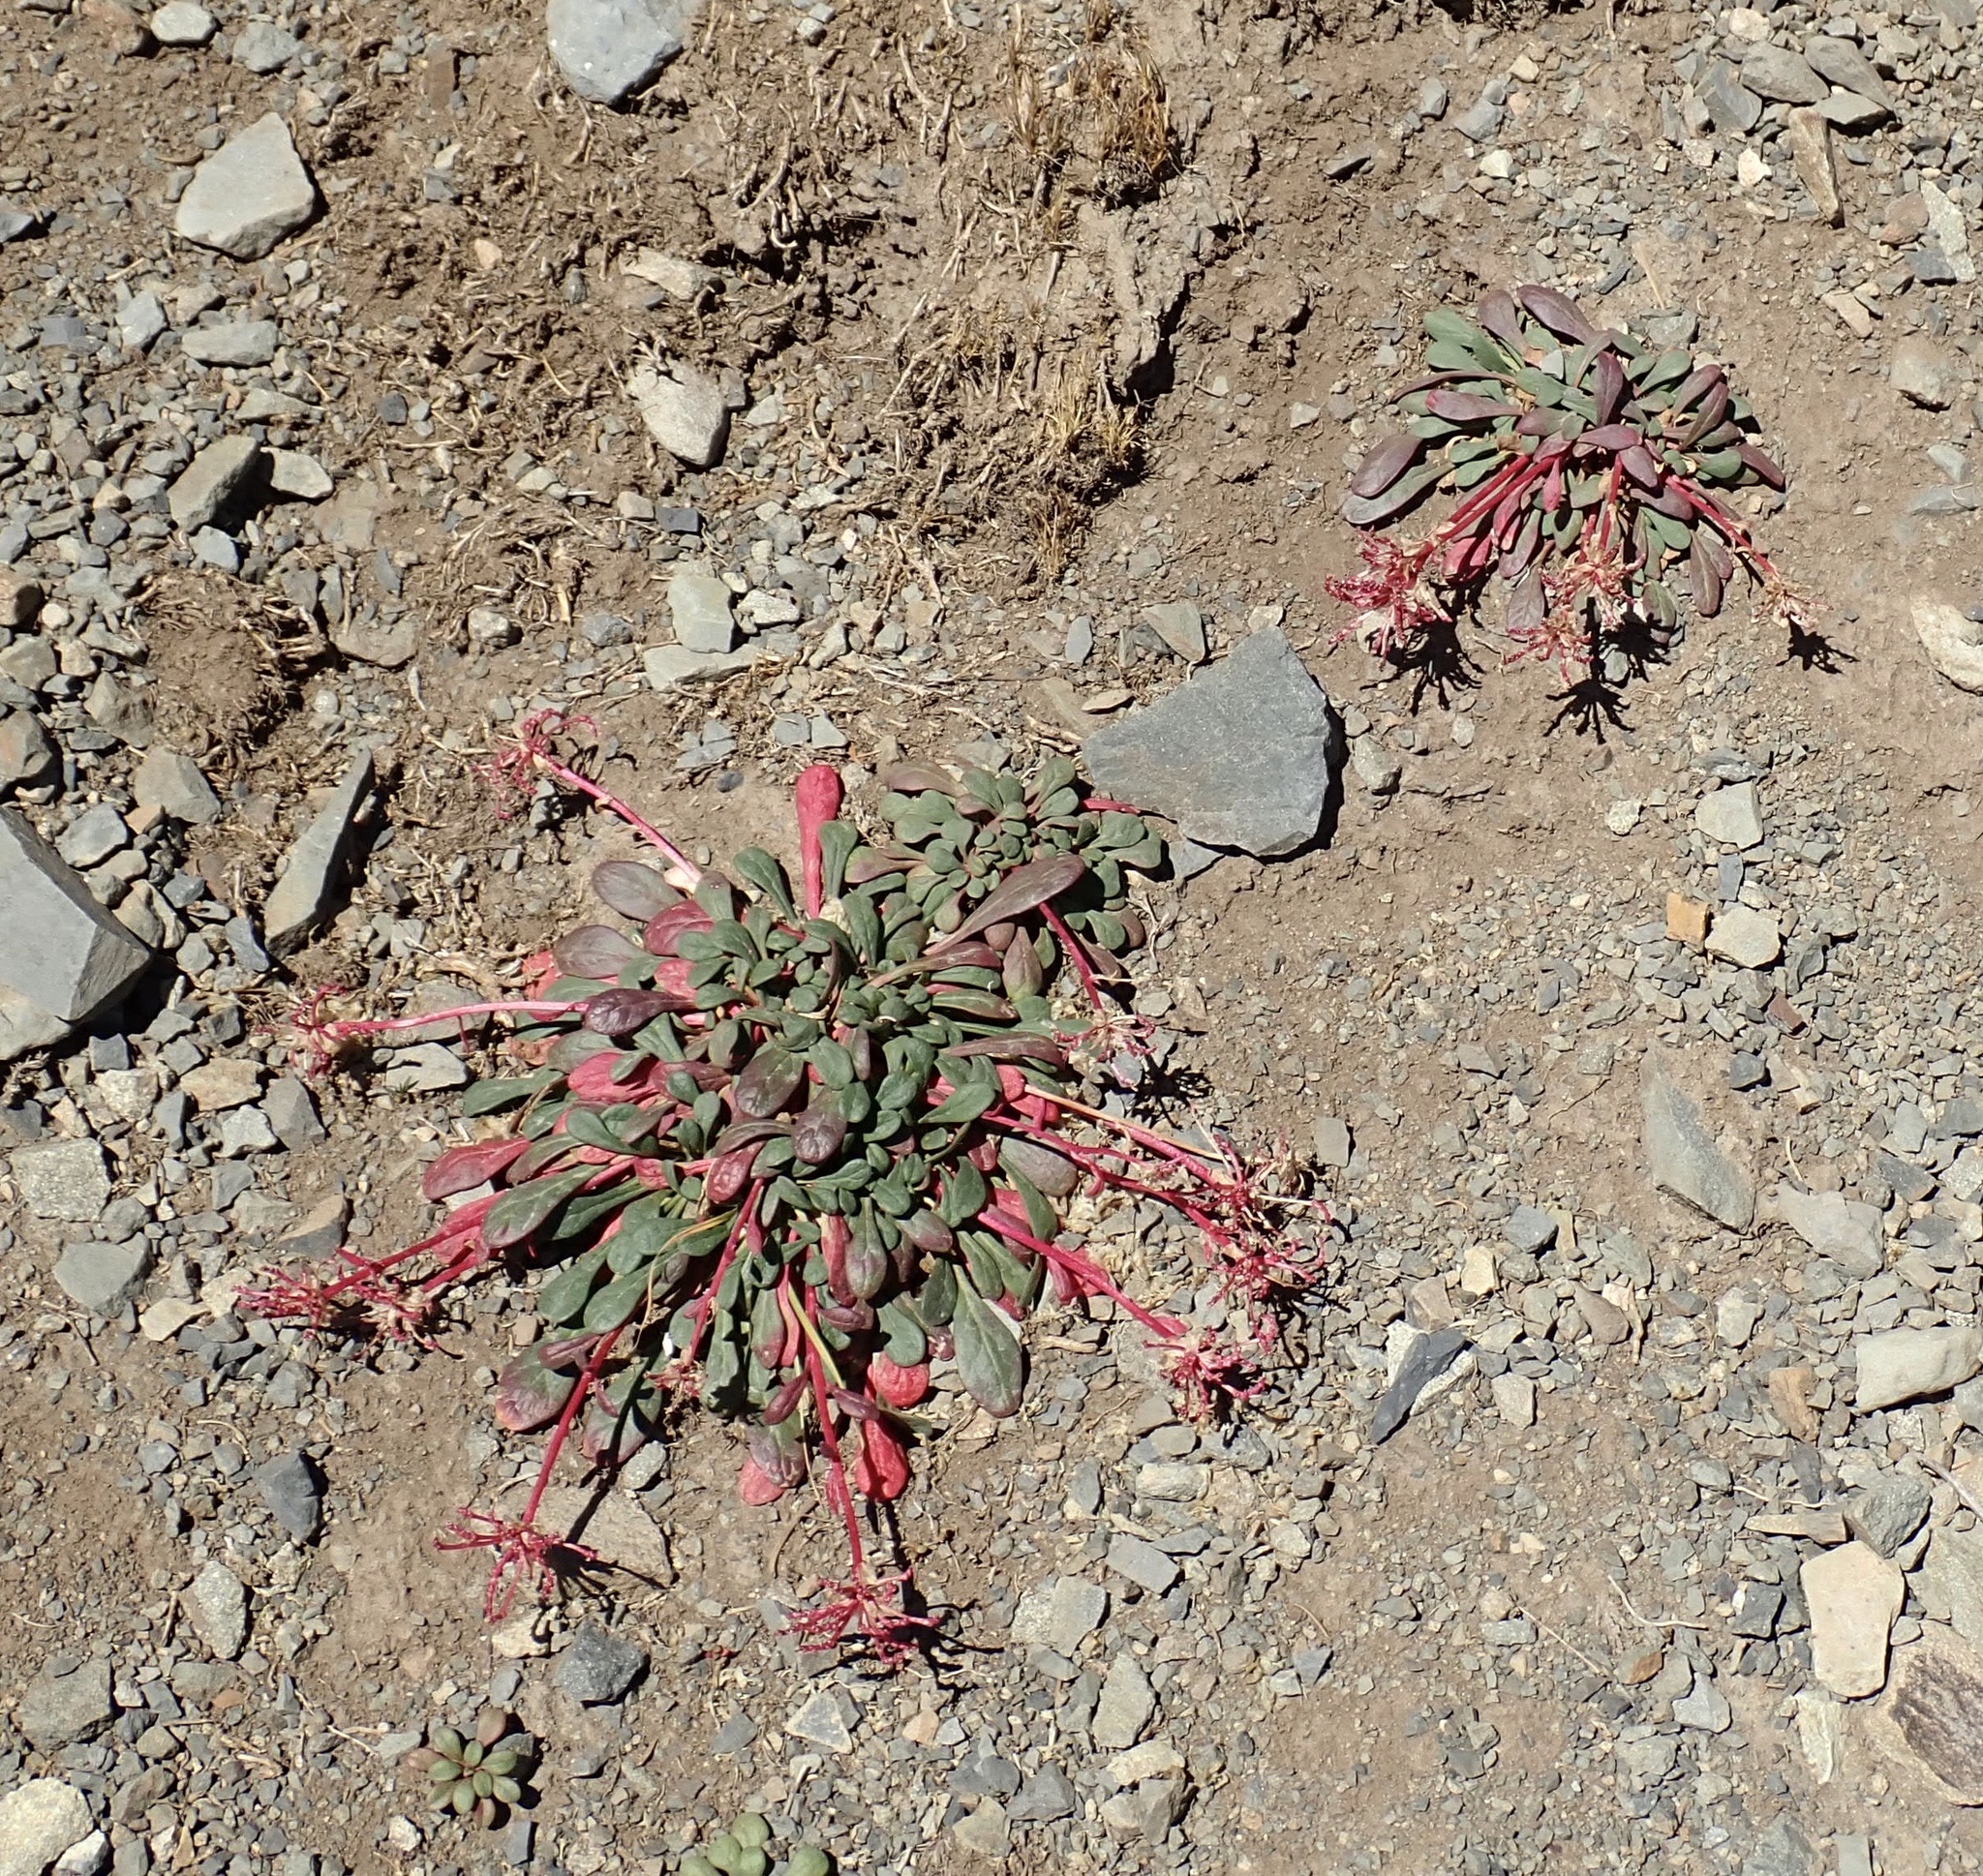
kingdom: Plantae
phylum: Tracheophyta
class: Magnoliopsida
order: Caryophyllales
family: Montiaceae
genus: Calyptridium
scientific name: Calyptridium umbellatum
